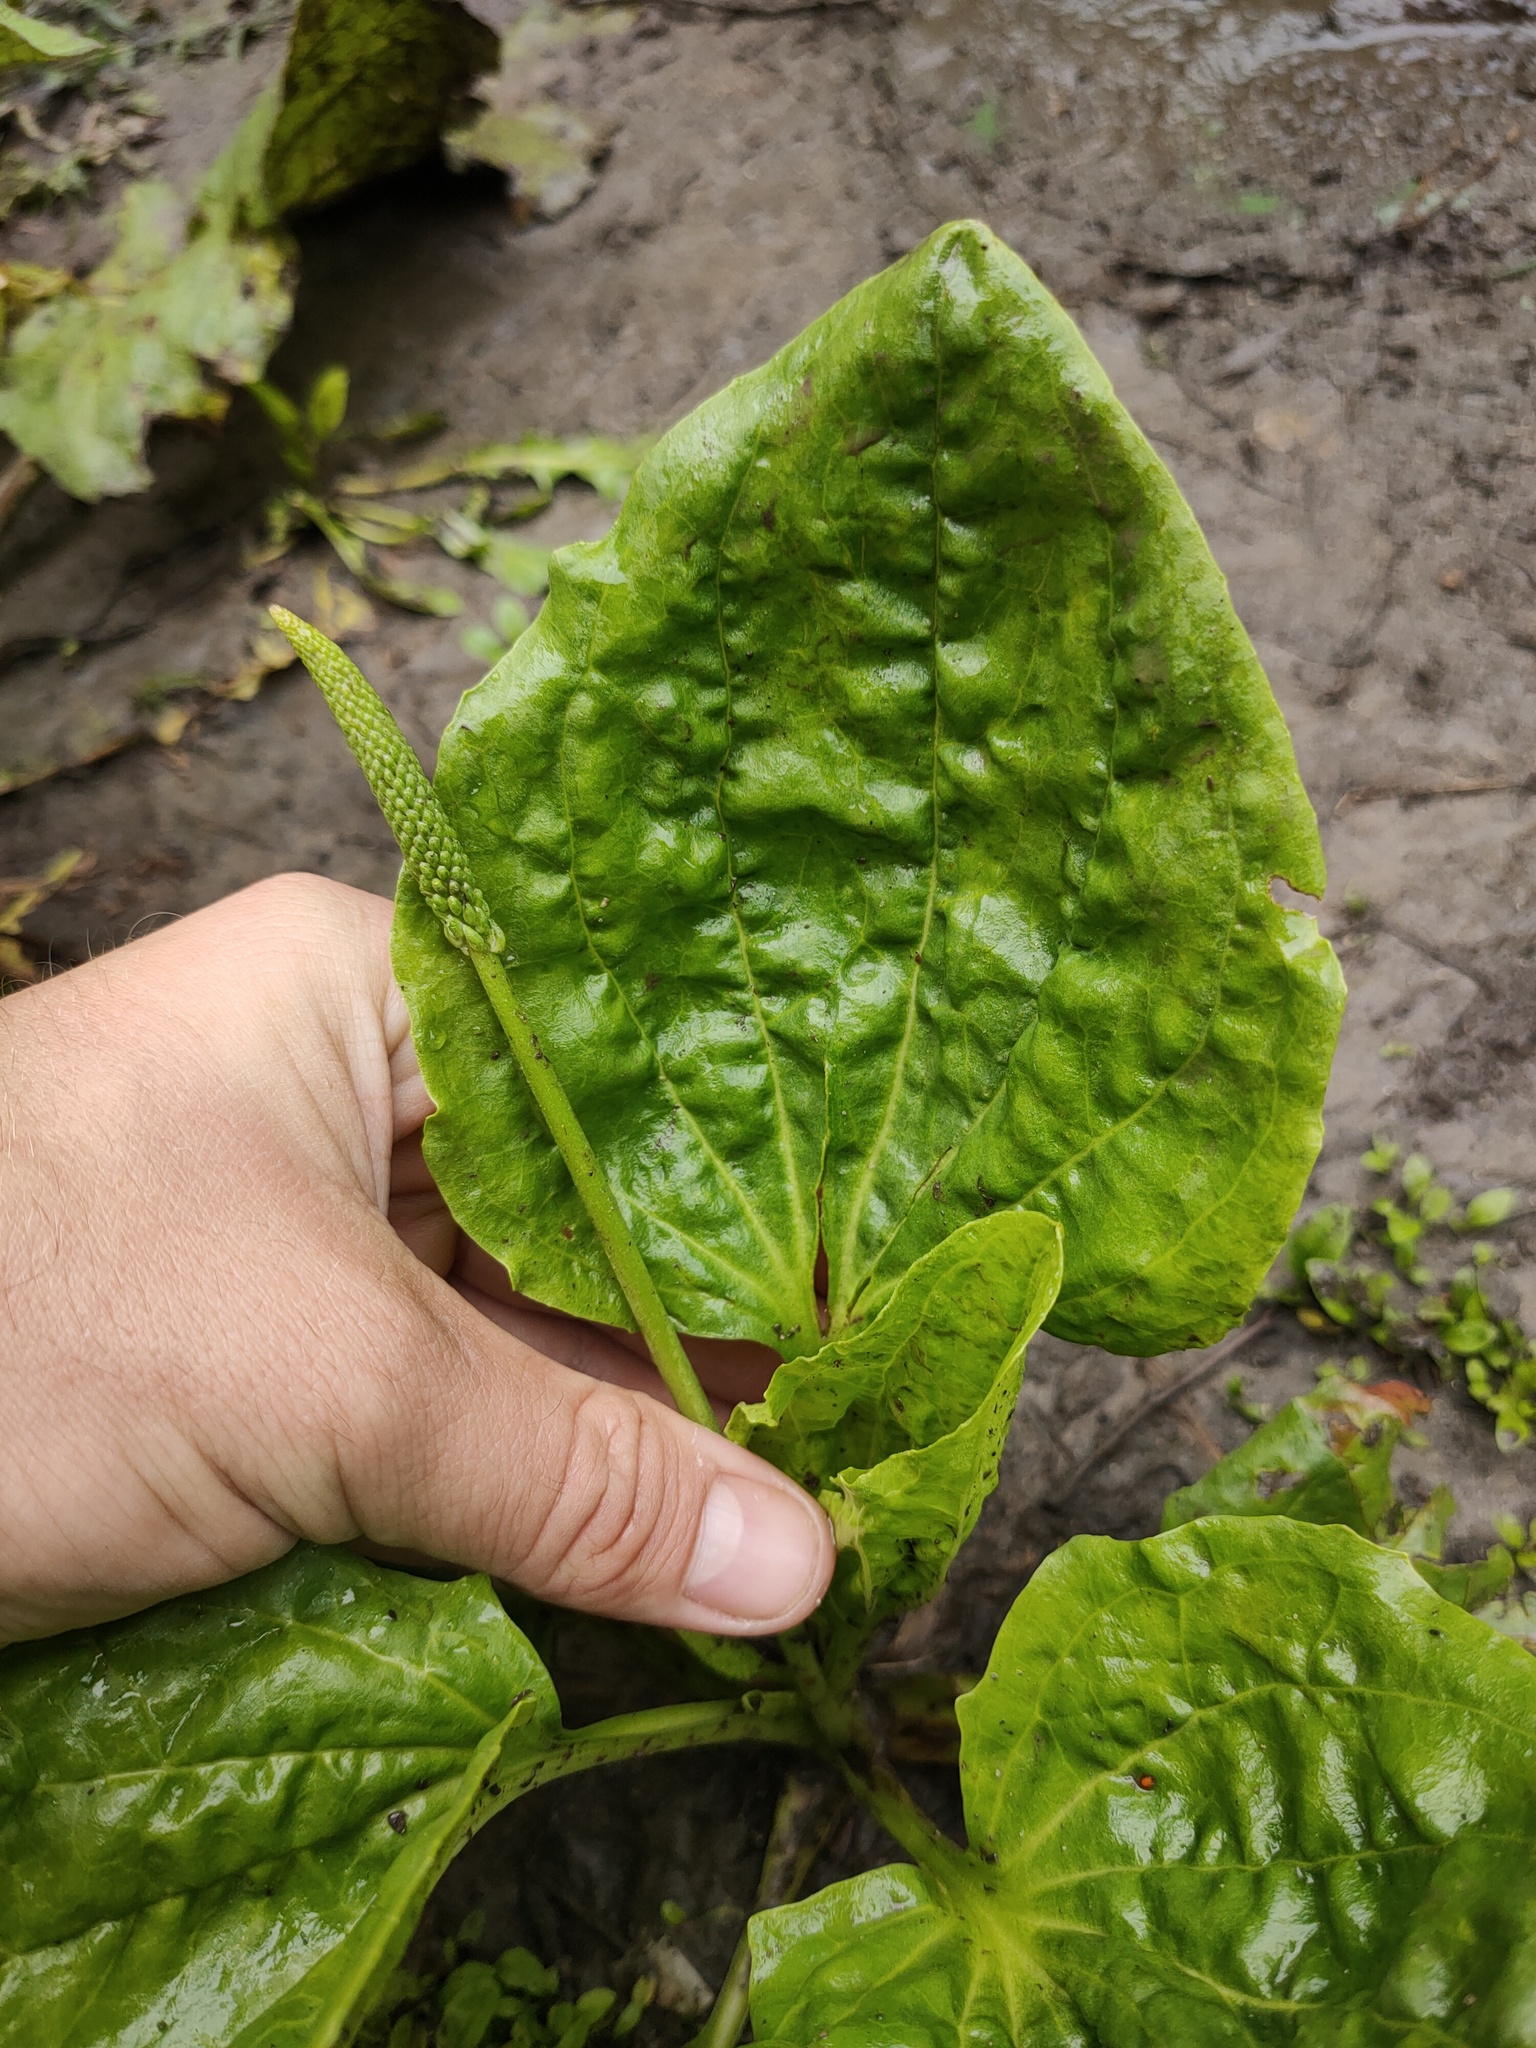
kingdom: Plantae
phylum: Tracheophyta
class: Magnoliopsida
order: Lamiales
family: Plantaginaceae
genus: Plantago
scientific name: Plantago major
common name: Common plantain
